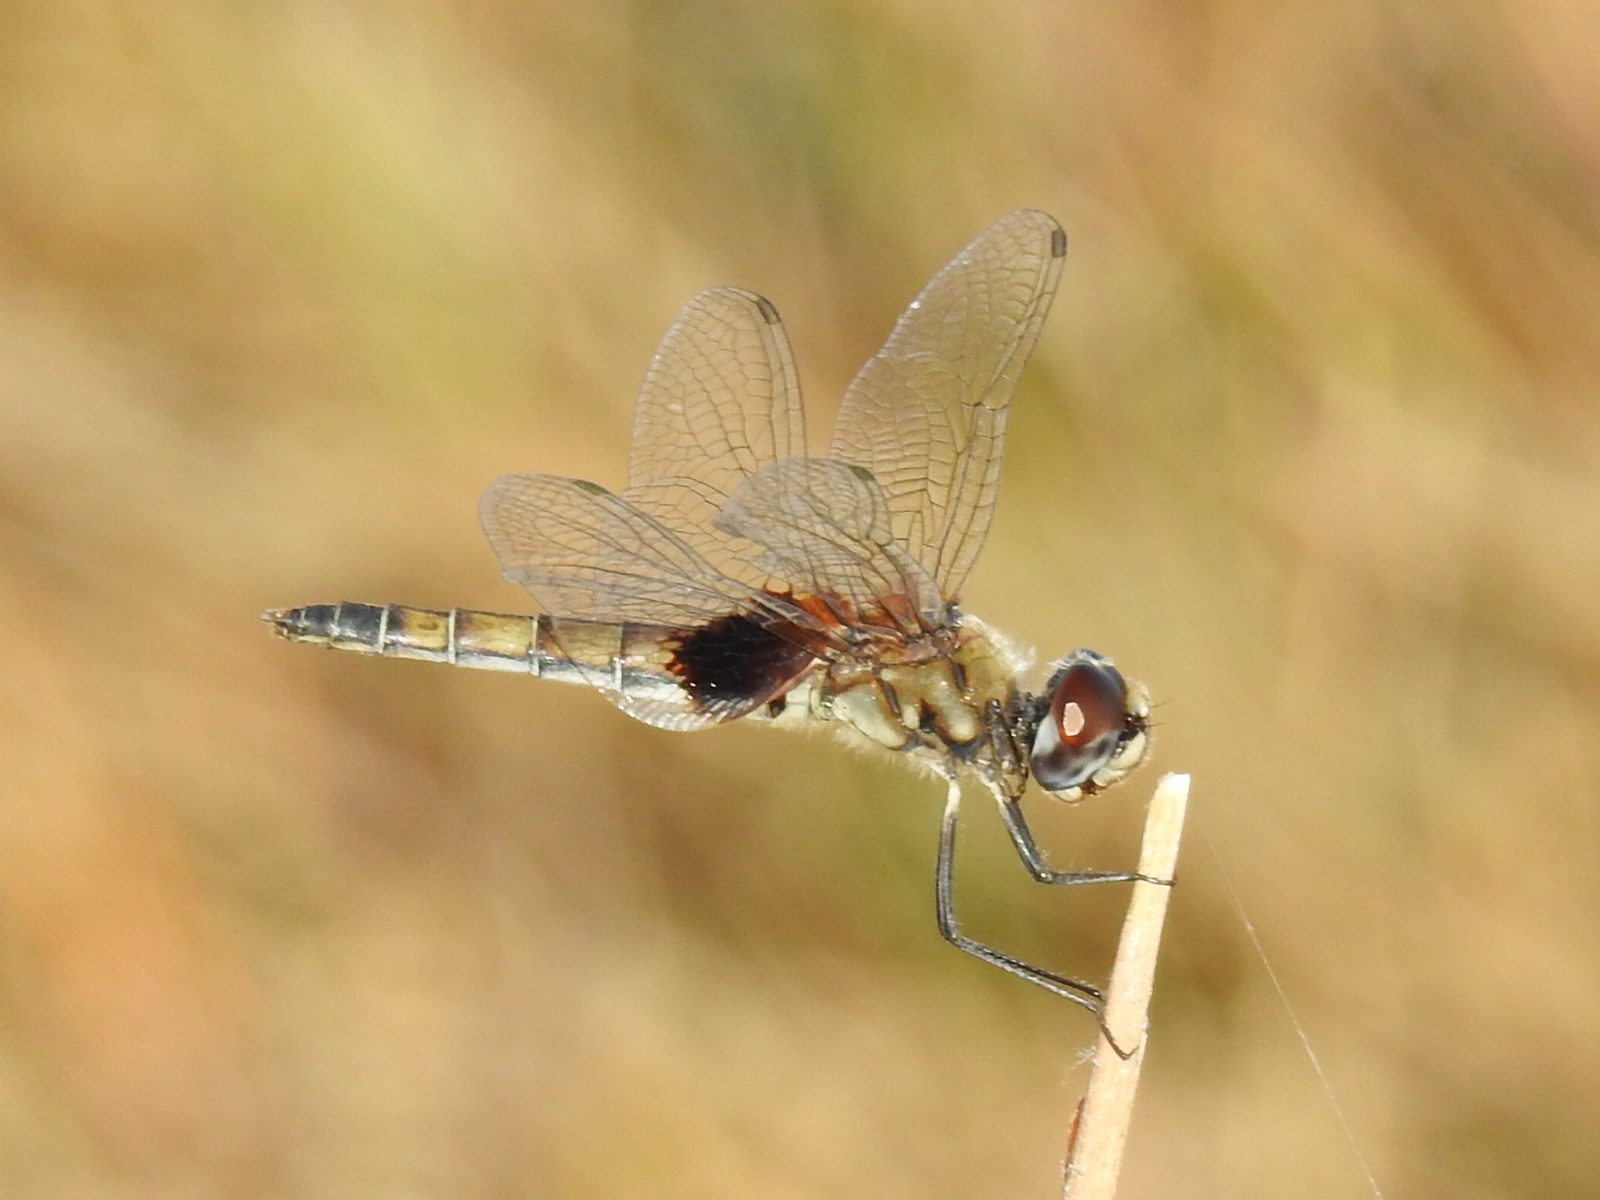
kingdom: Animalia
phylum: Arthropoda
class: Insecta
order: Odonata
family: Libellulidae
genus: Macrodiplax
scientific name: Macrodiplax balteata
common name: Marl pennant
